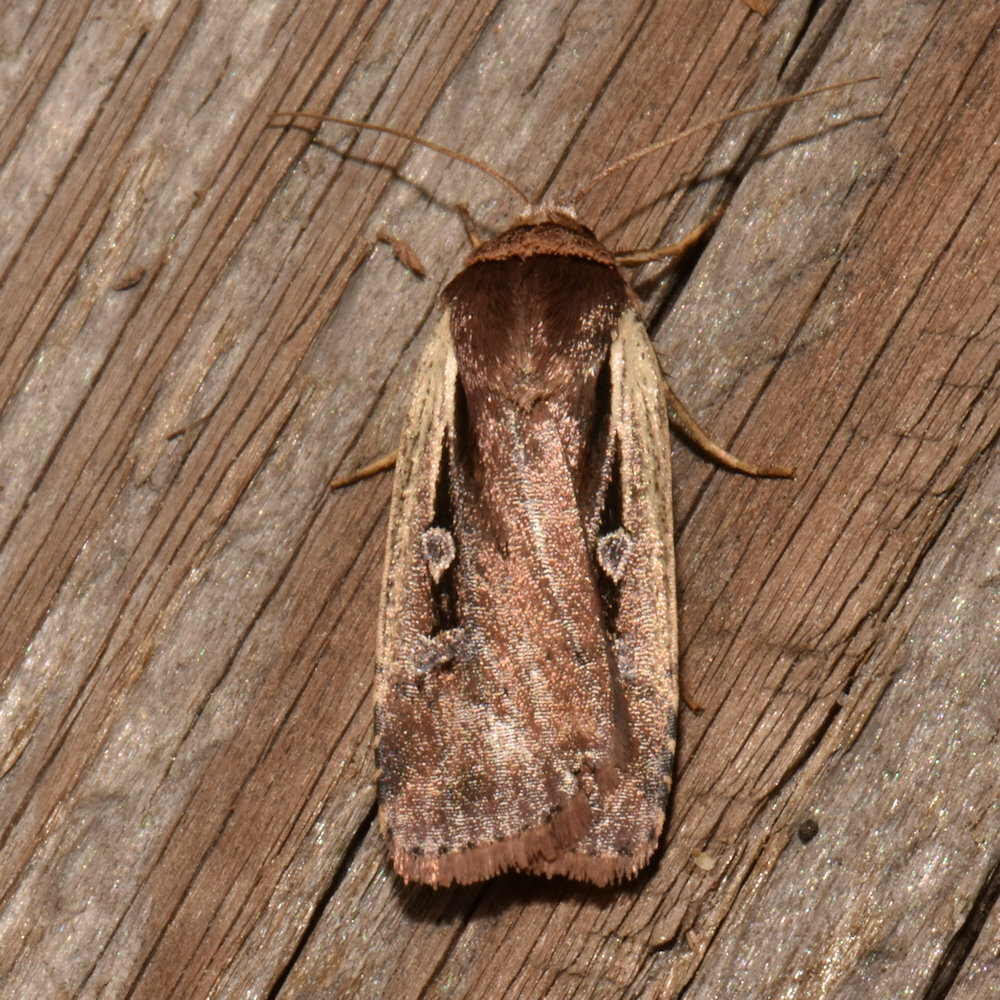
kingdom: Animalia
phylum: Arthropoda
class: Insecta
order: Lepidoptera
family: Noctuidae
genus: Ochropleura
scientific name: Ochropleura implecta
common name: Flame-shouldered dart
